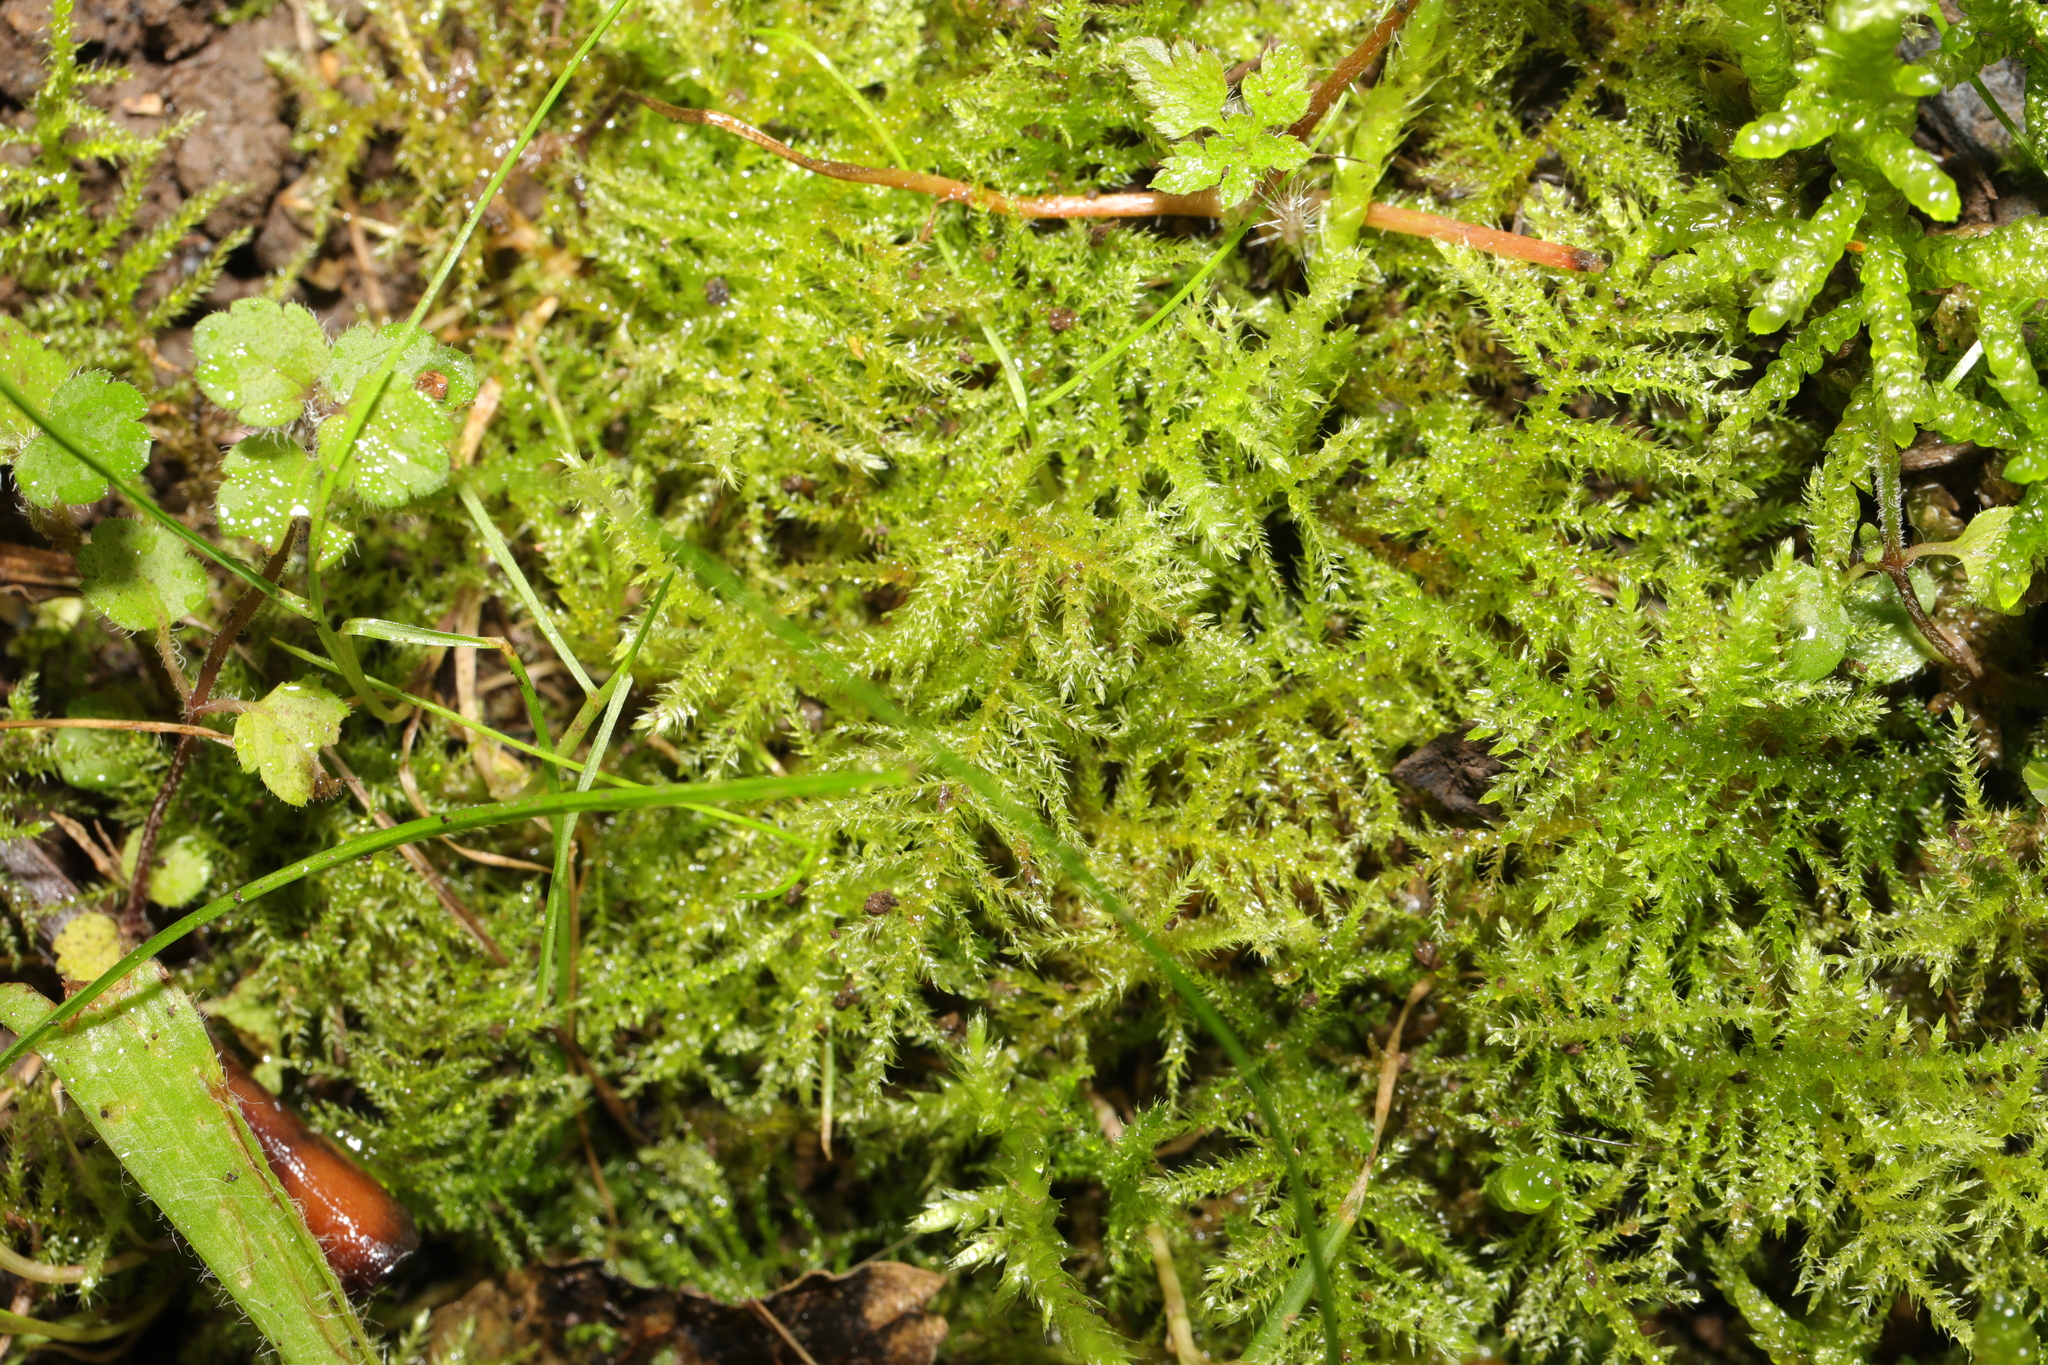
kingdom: Plantae
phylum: Bryophyta
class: Bryopsida
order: Hypnales
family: Brachytheciaceae
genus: Kindbergia
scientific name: Kindbergia praelonga
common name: Slender beaked moss
